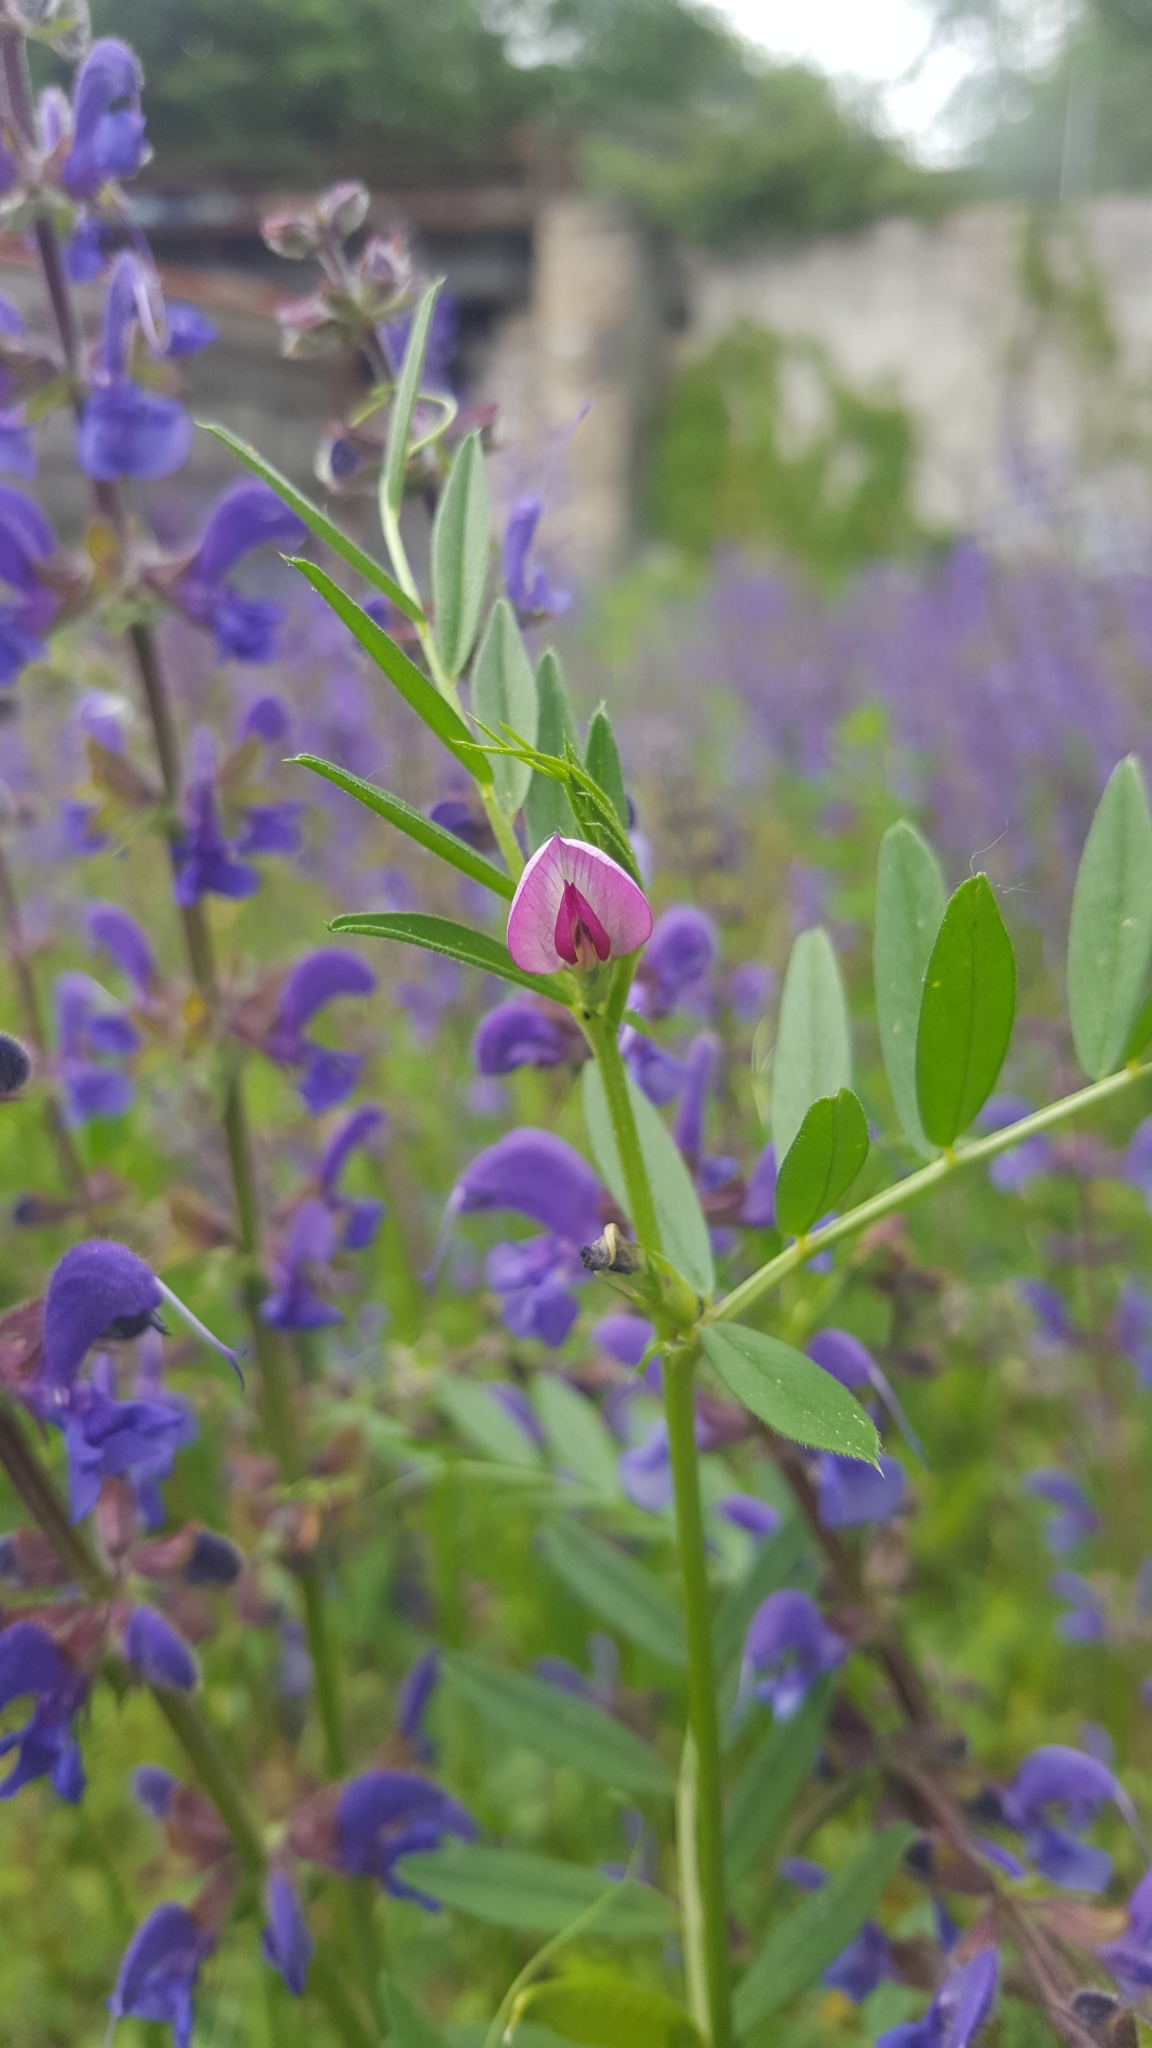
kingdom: Plantae
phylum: Tracheophyta
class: Magnoliopsida
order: Fabales
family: Fabaceae
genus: Vicia
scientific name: Vicia sativa
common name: Garden vetch
